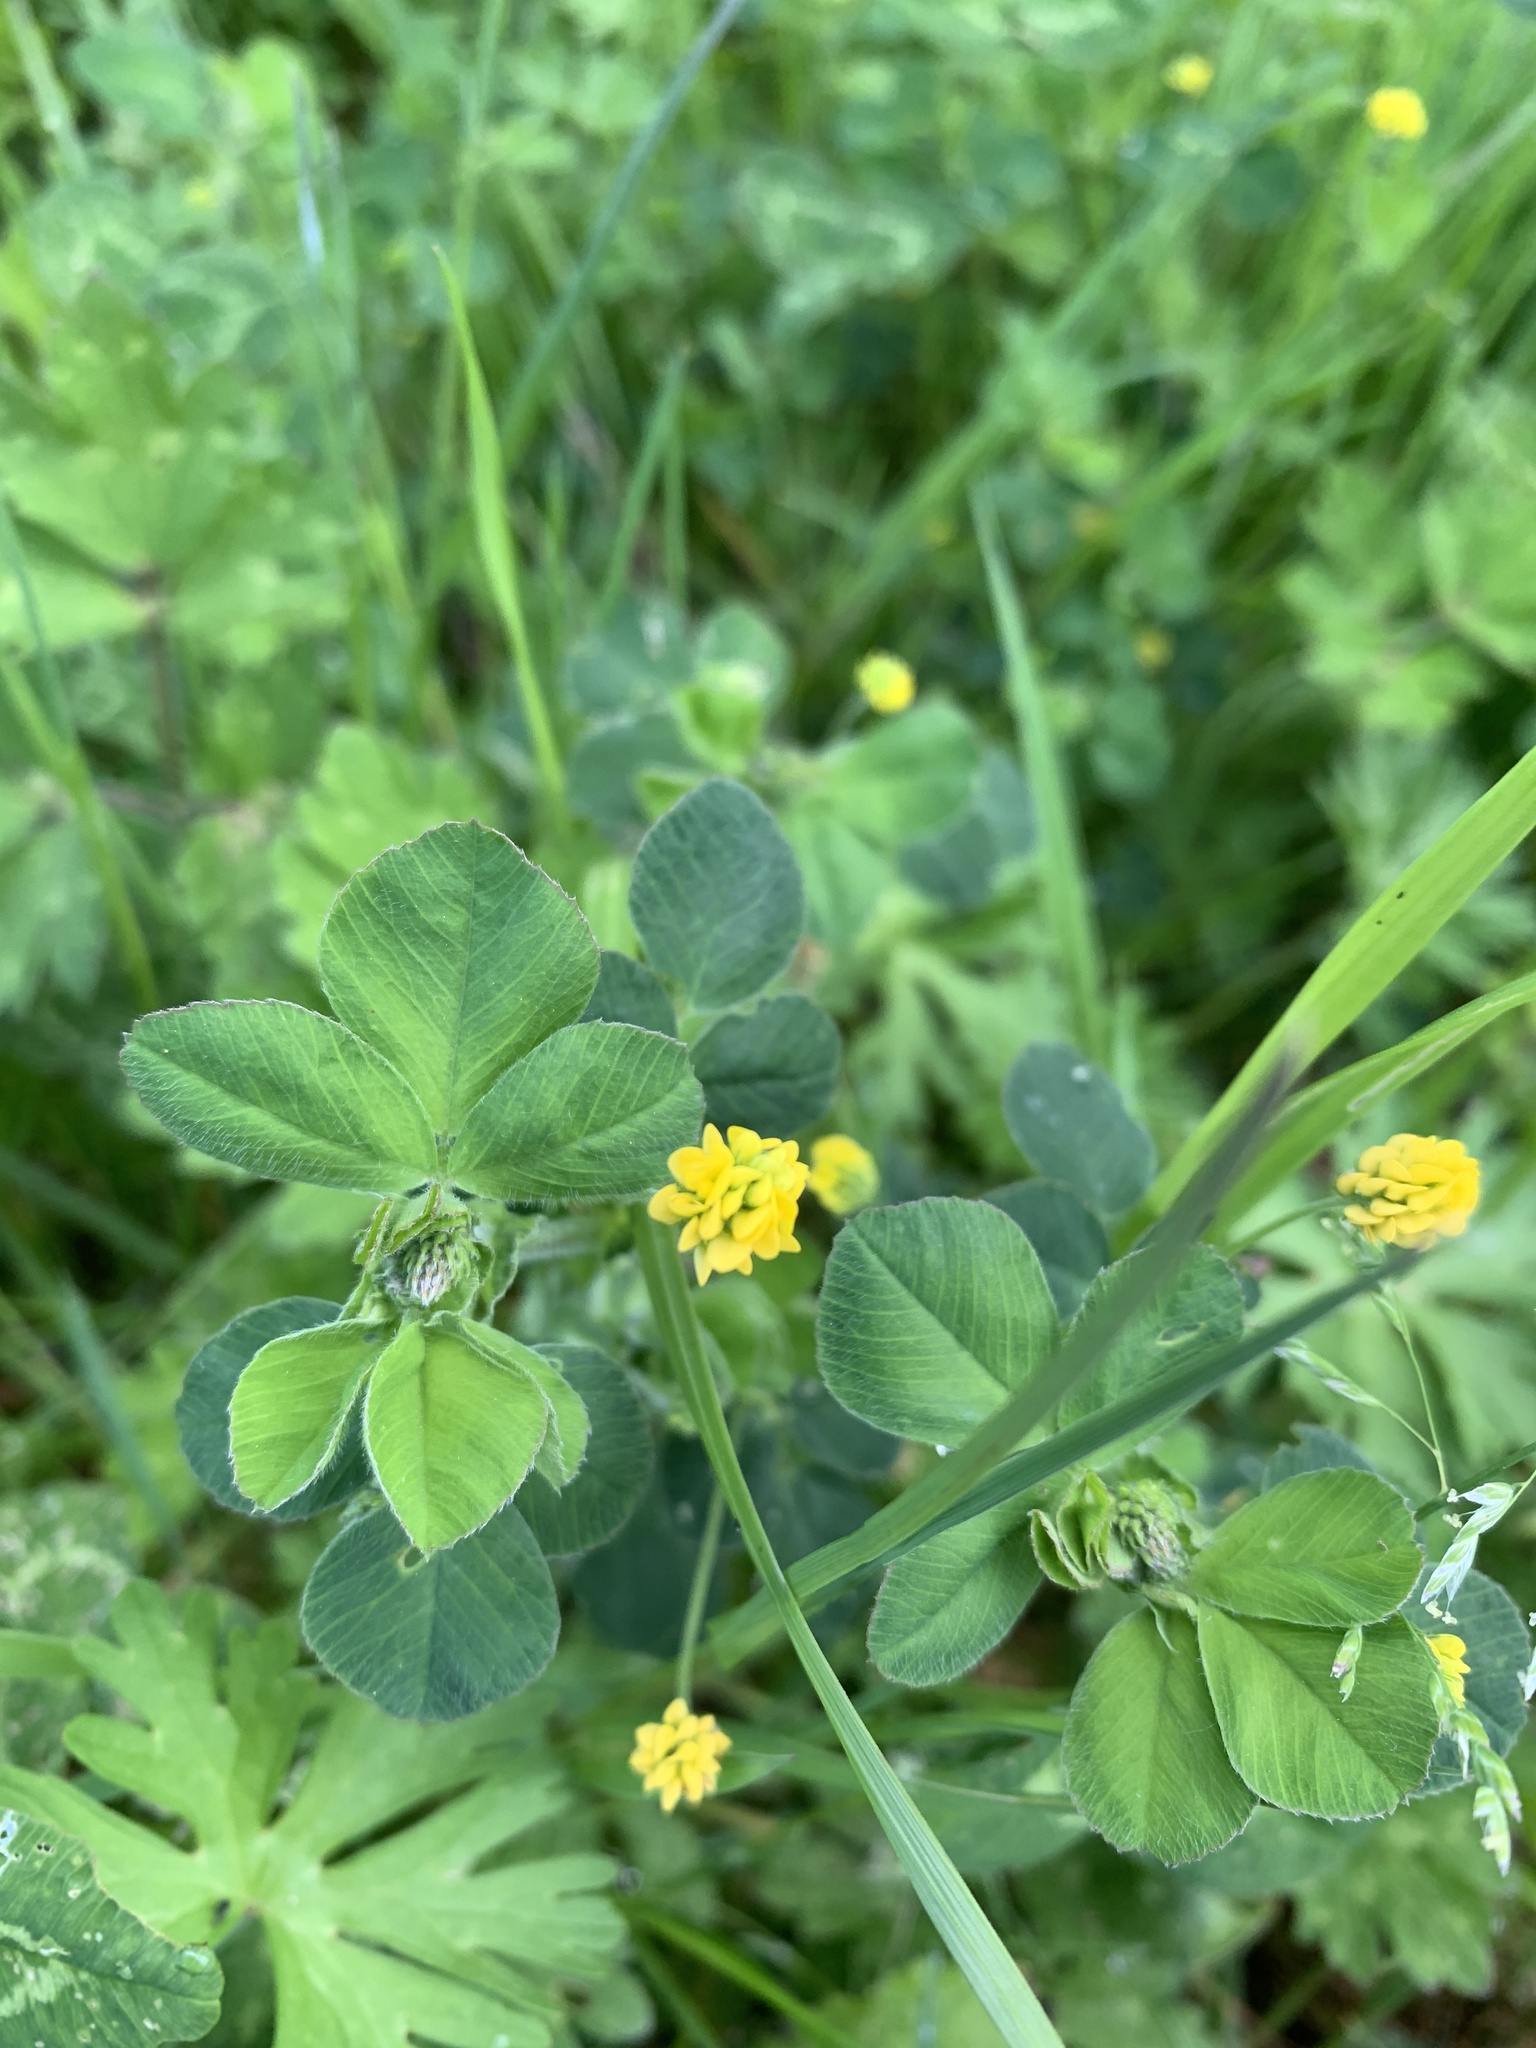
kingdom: Plantae
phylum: Tracheophyta
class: Magnoliopsida
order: Fabales
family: Fabaceae
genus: Medicago
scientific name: Medicago lupulina
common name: Black medick
